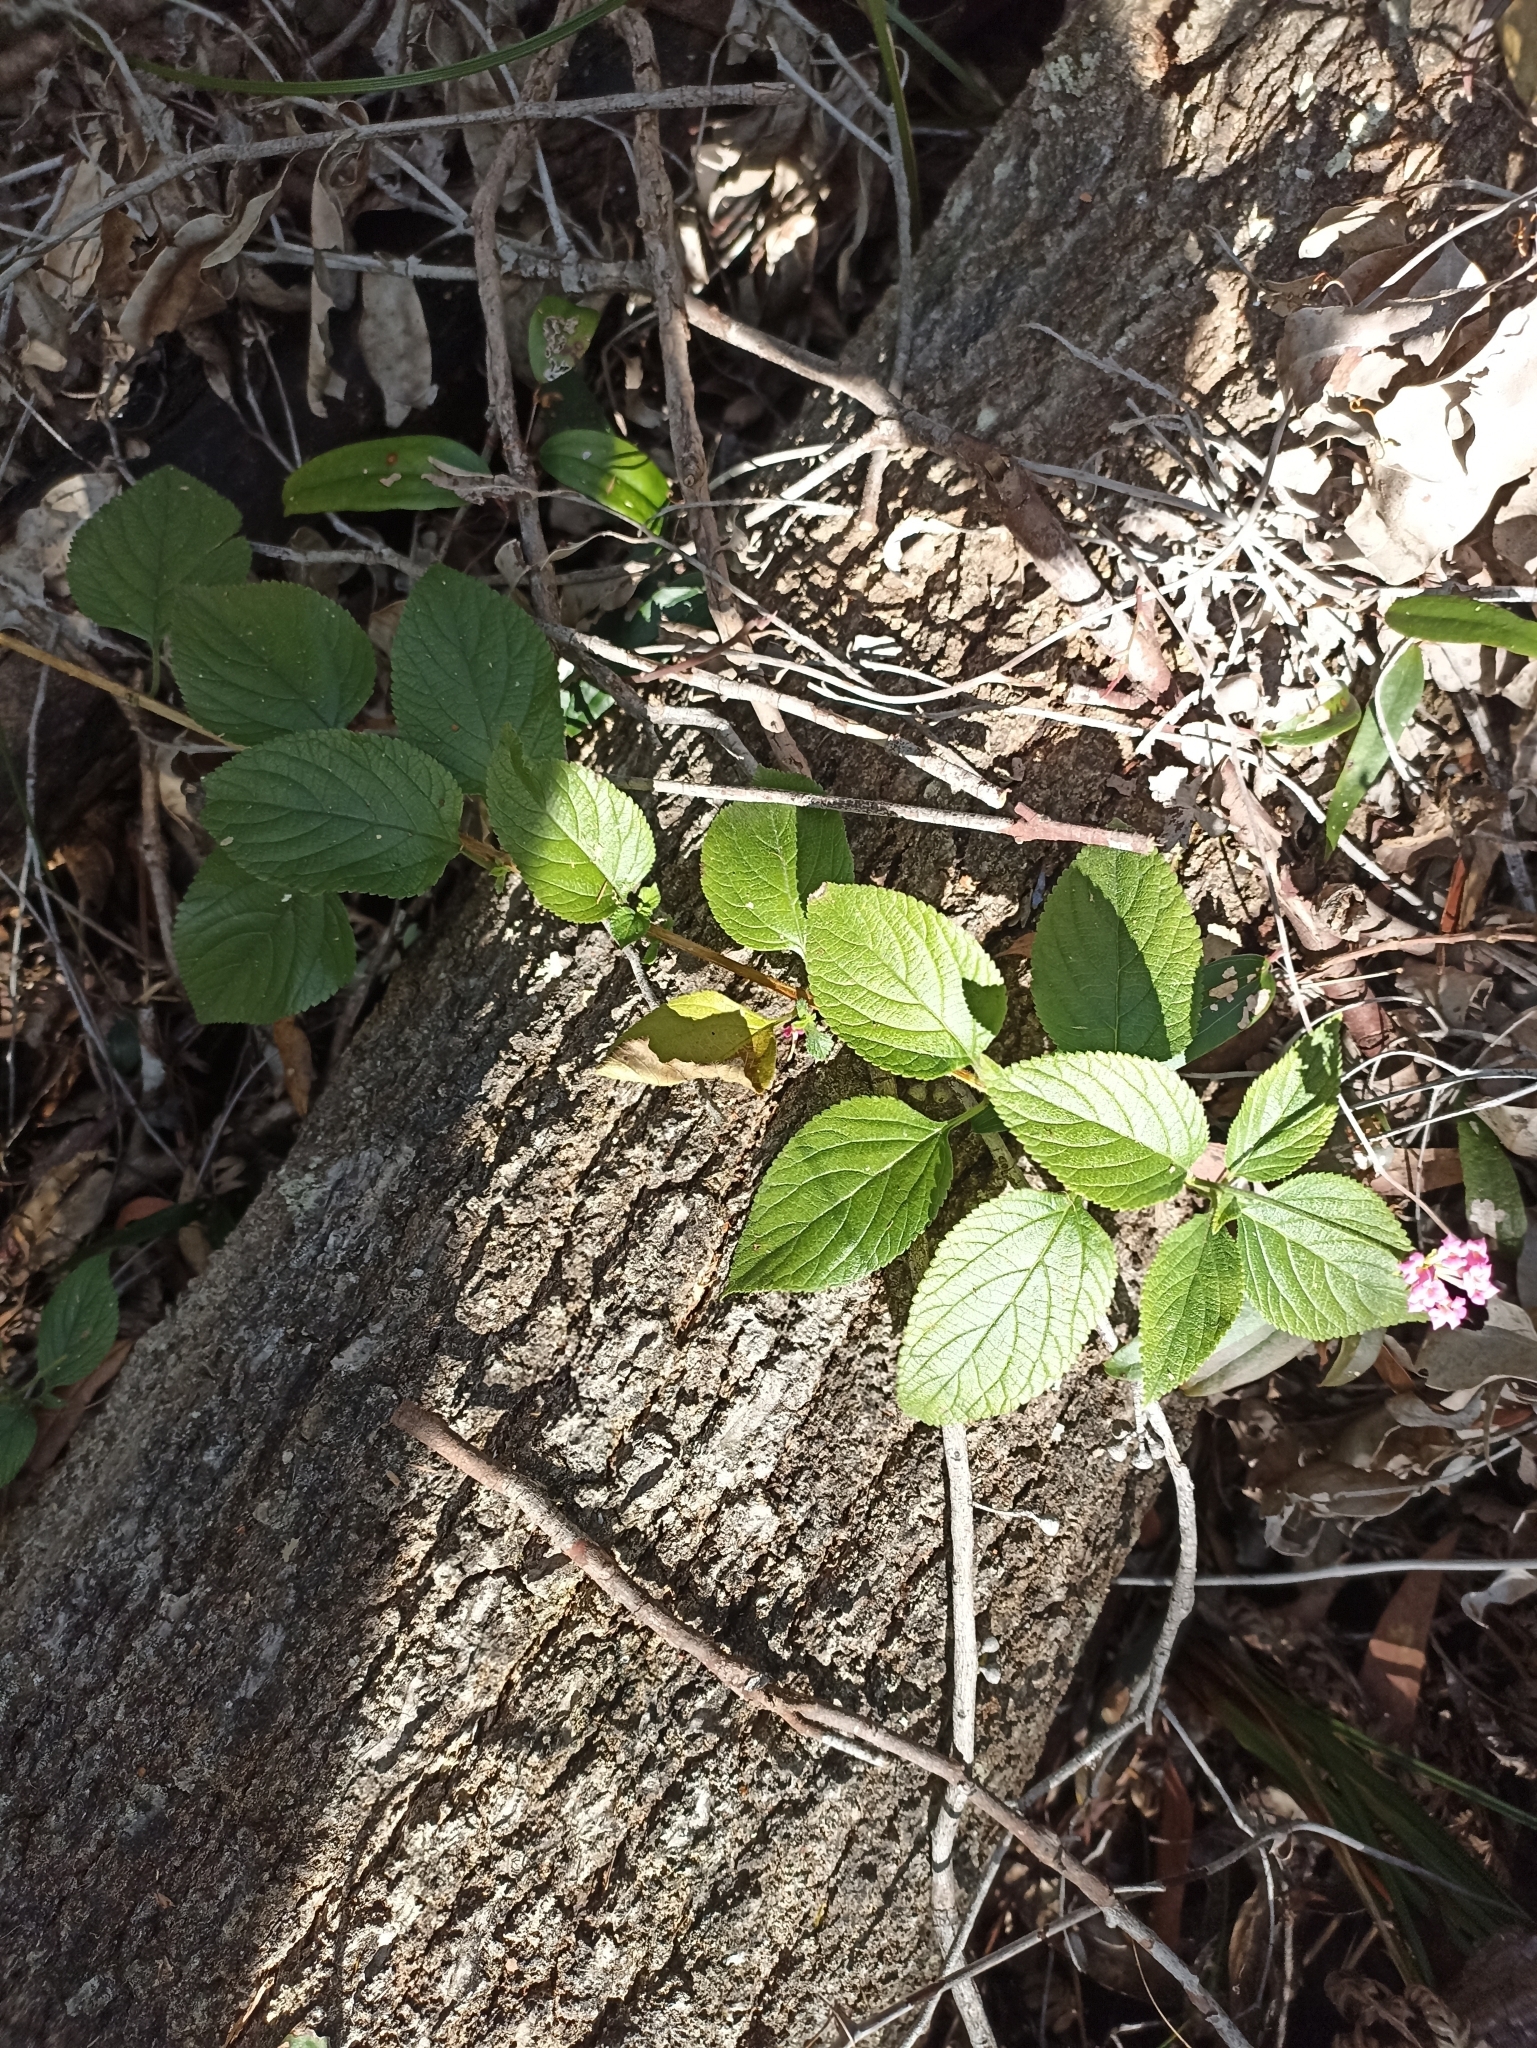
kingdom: Plantae
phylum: Tracheophyta
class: Magnoliopsida
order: Lamiales
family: Verbenaceae
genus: Lantana
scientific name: Lantana camara
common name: Lantana
